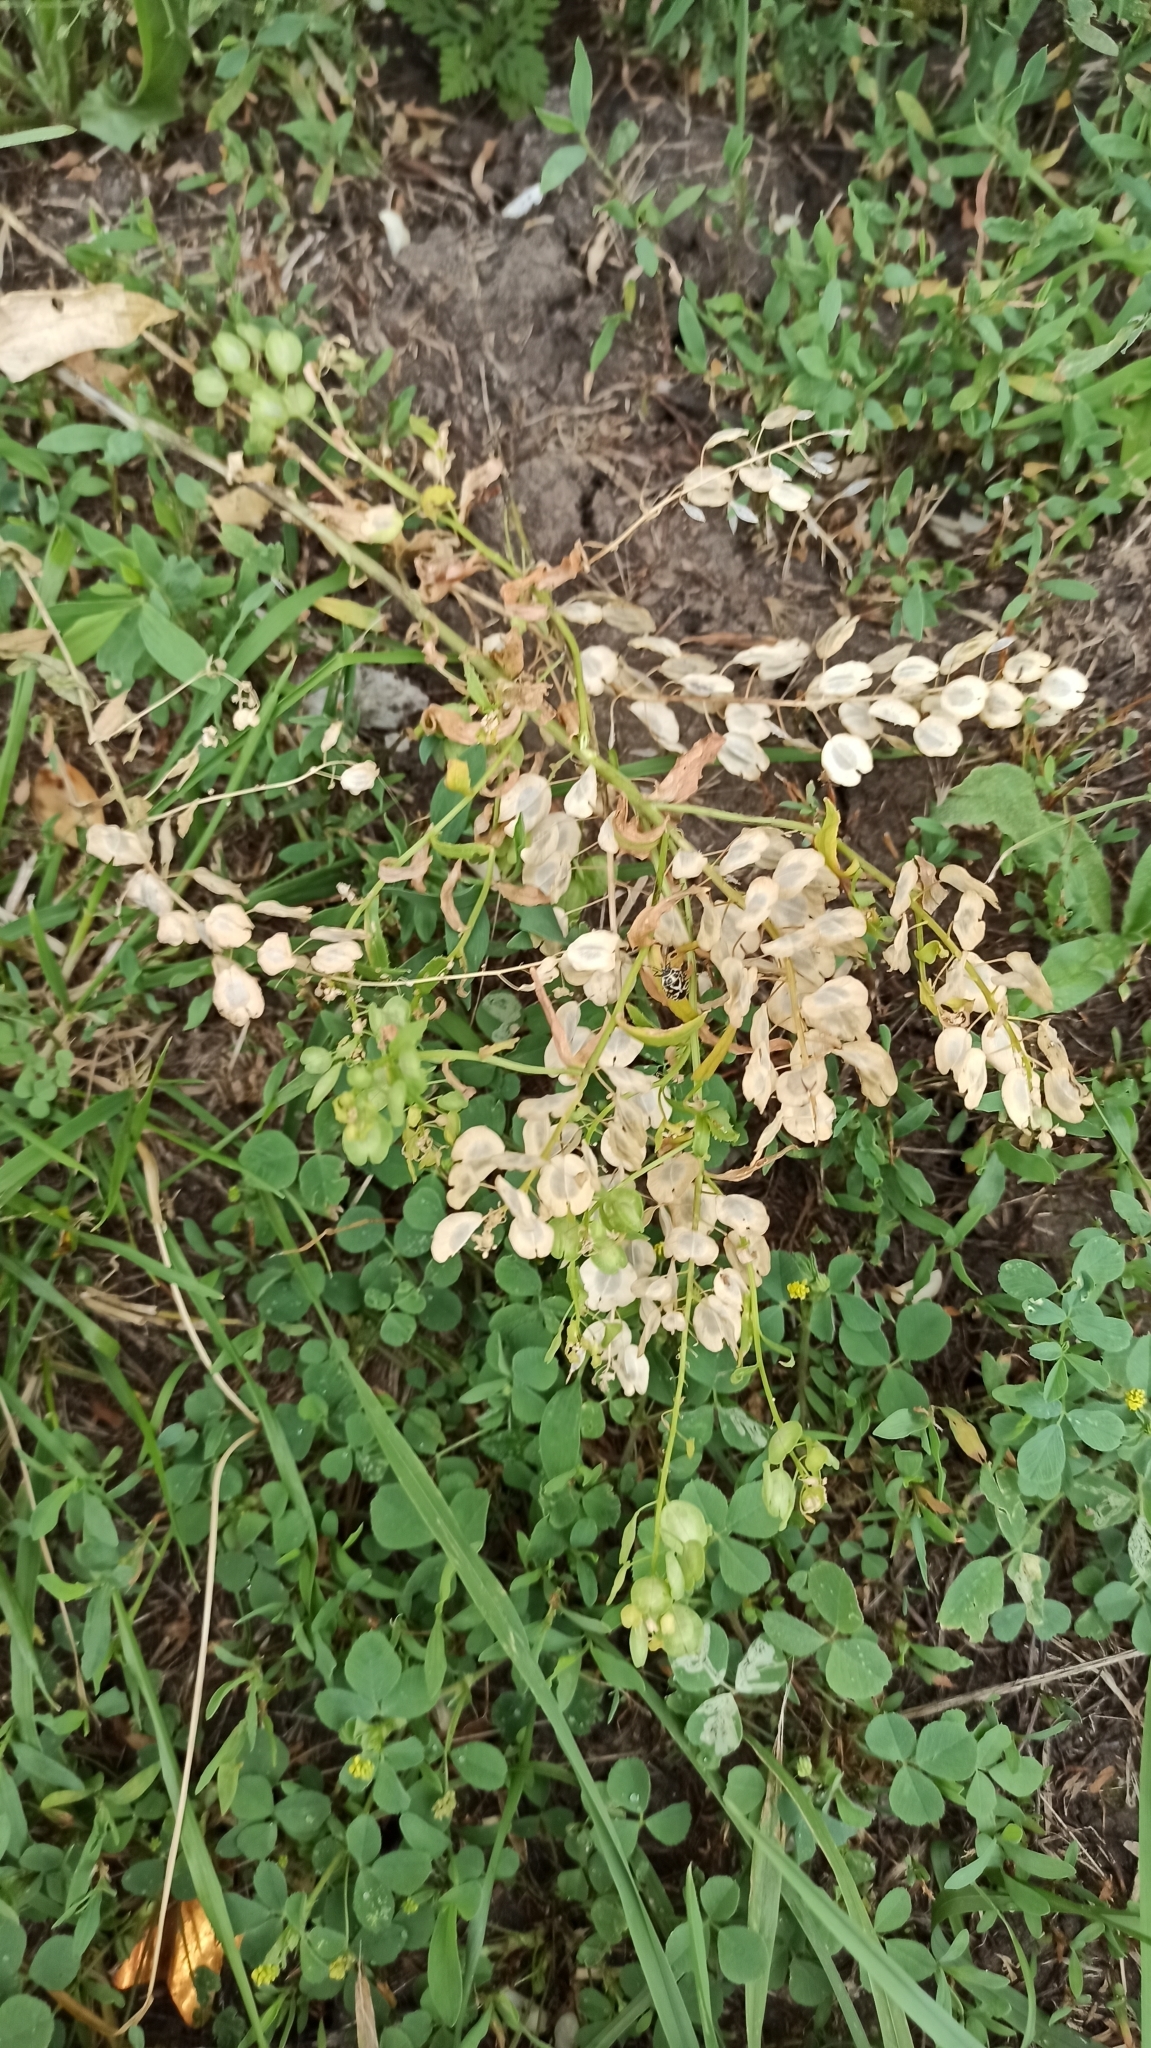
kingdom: Plantae
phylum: Tracheophyta
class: Magnoliopsida
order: Brassicales
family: Brassicaceae
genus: Thlaspi
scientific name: Thlaspi arvense
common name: Field pennycress
